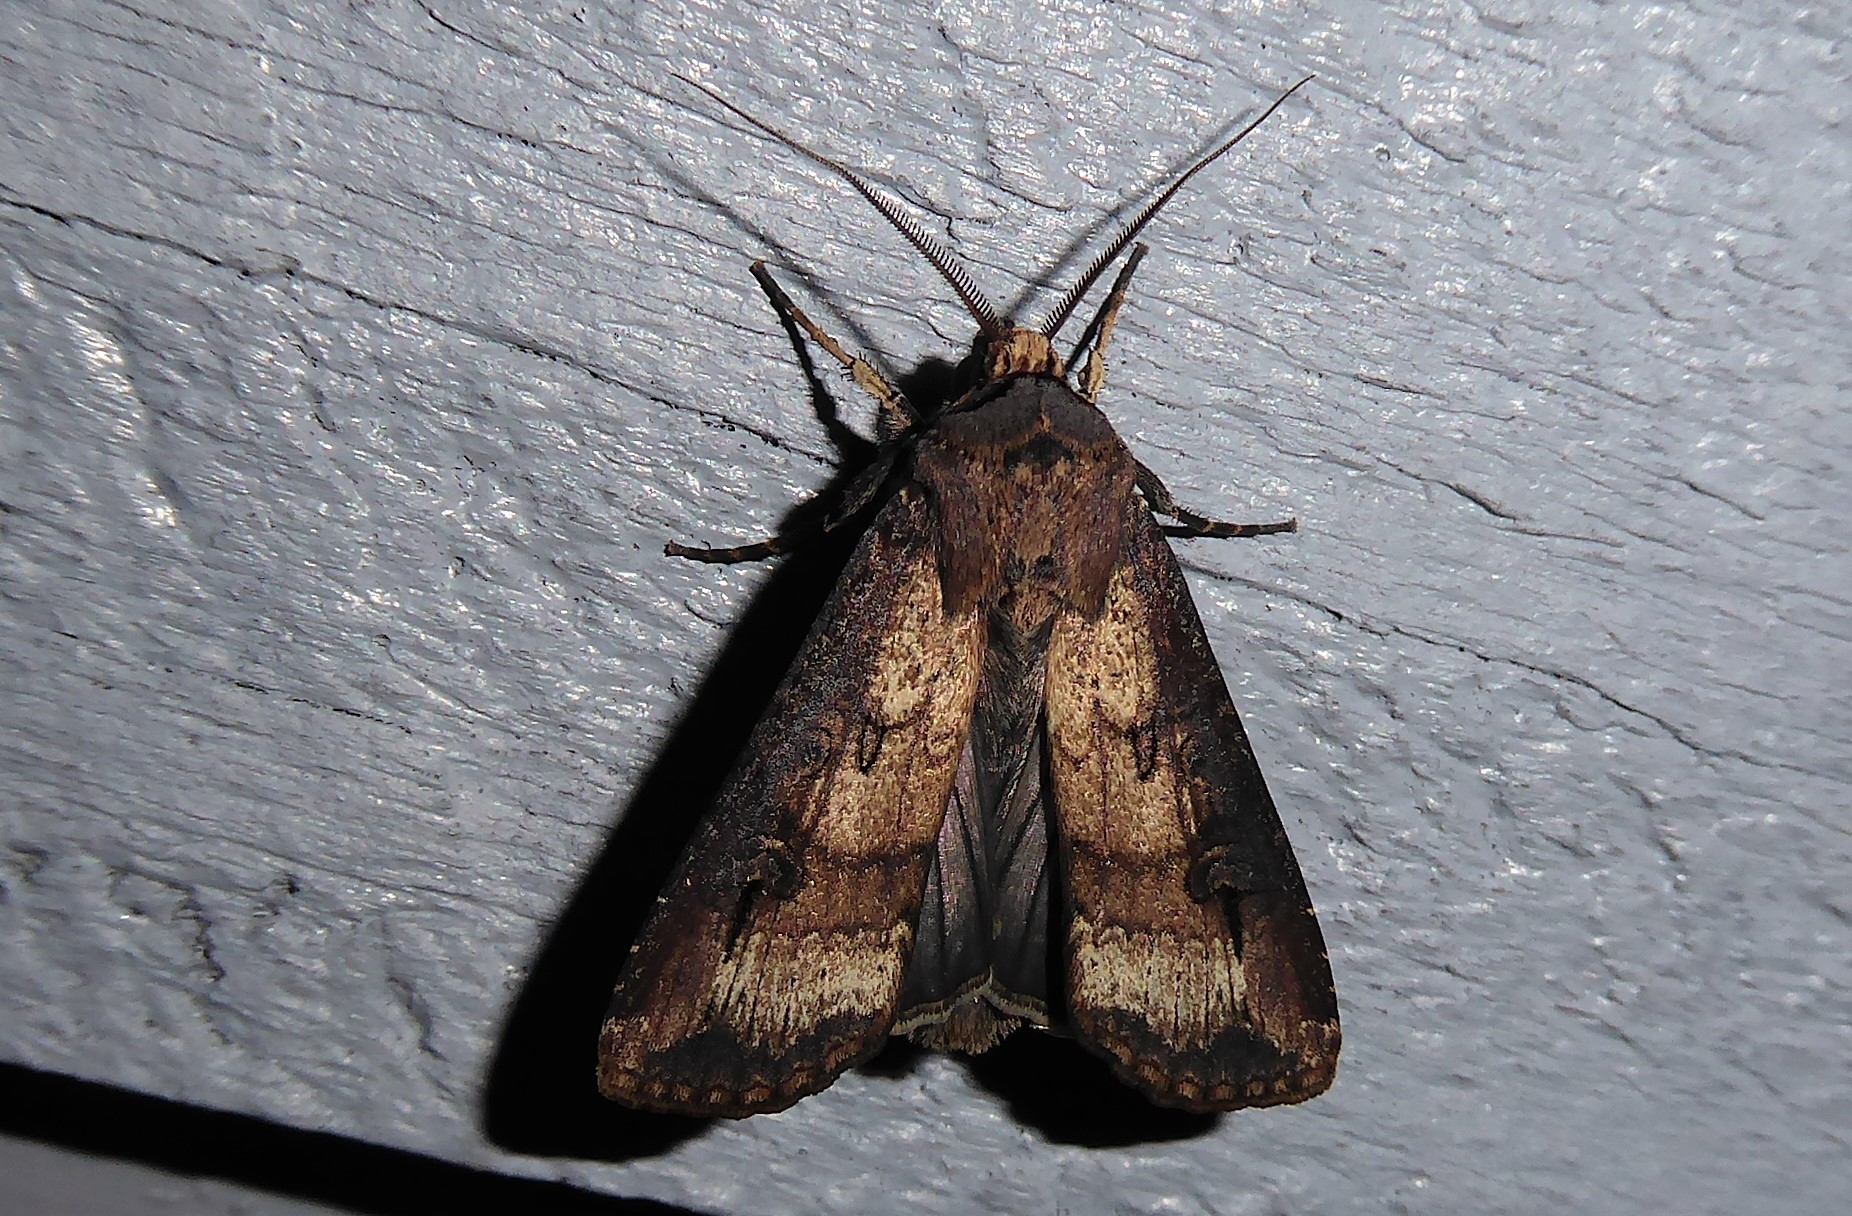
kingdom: Animalia
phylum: Arthropoda
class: Insecta
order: Lepidoptera
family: Noctuidae
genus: Agrotis
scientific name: Agrotis ipsilon
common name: Dark sword-grass
